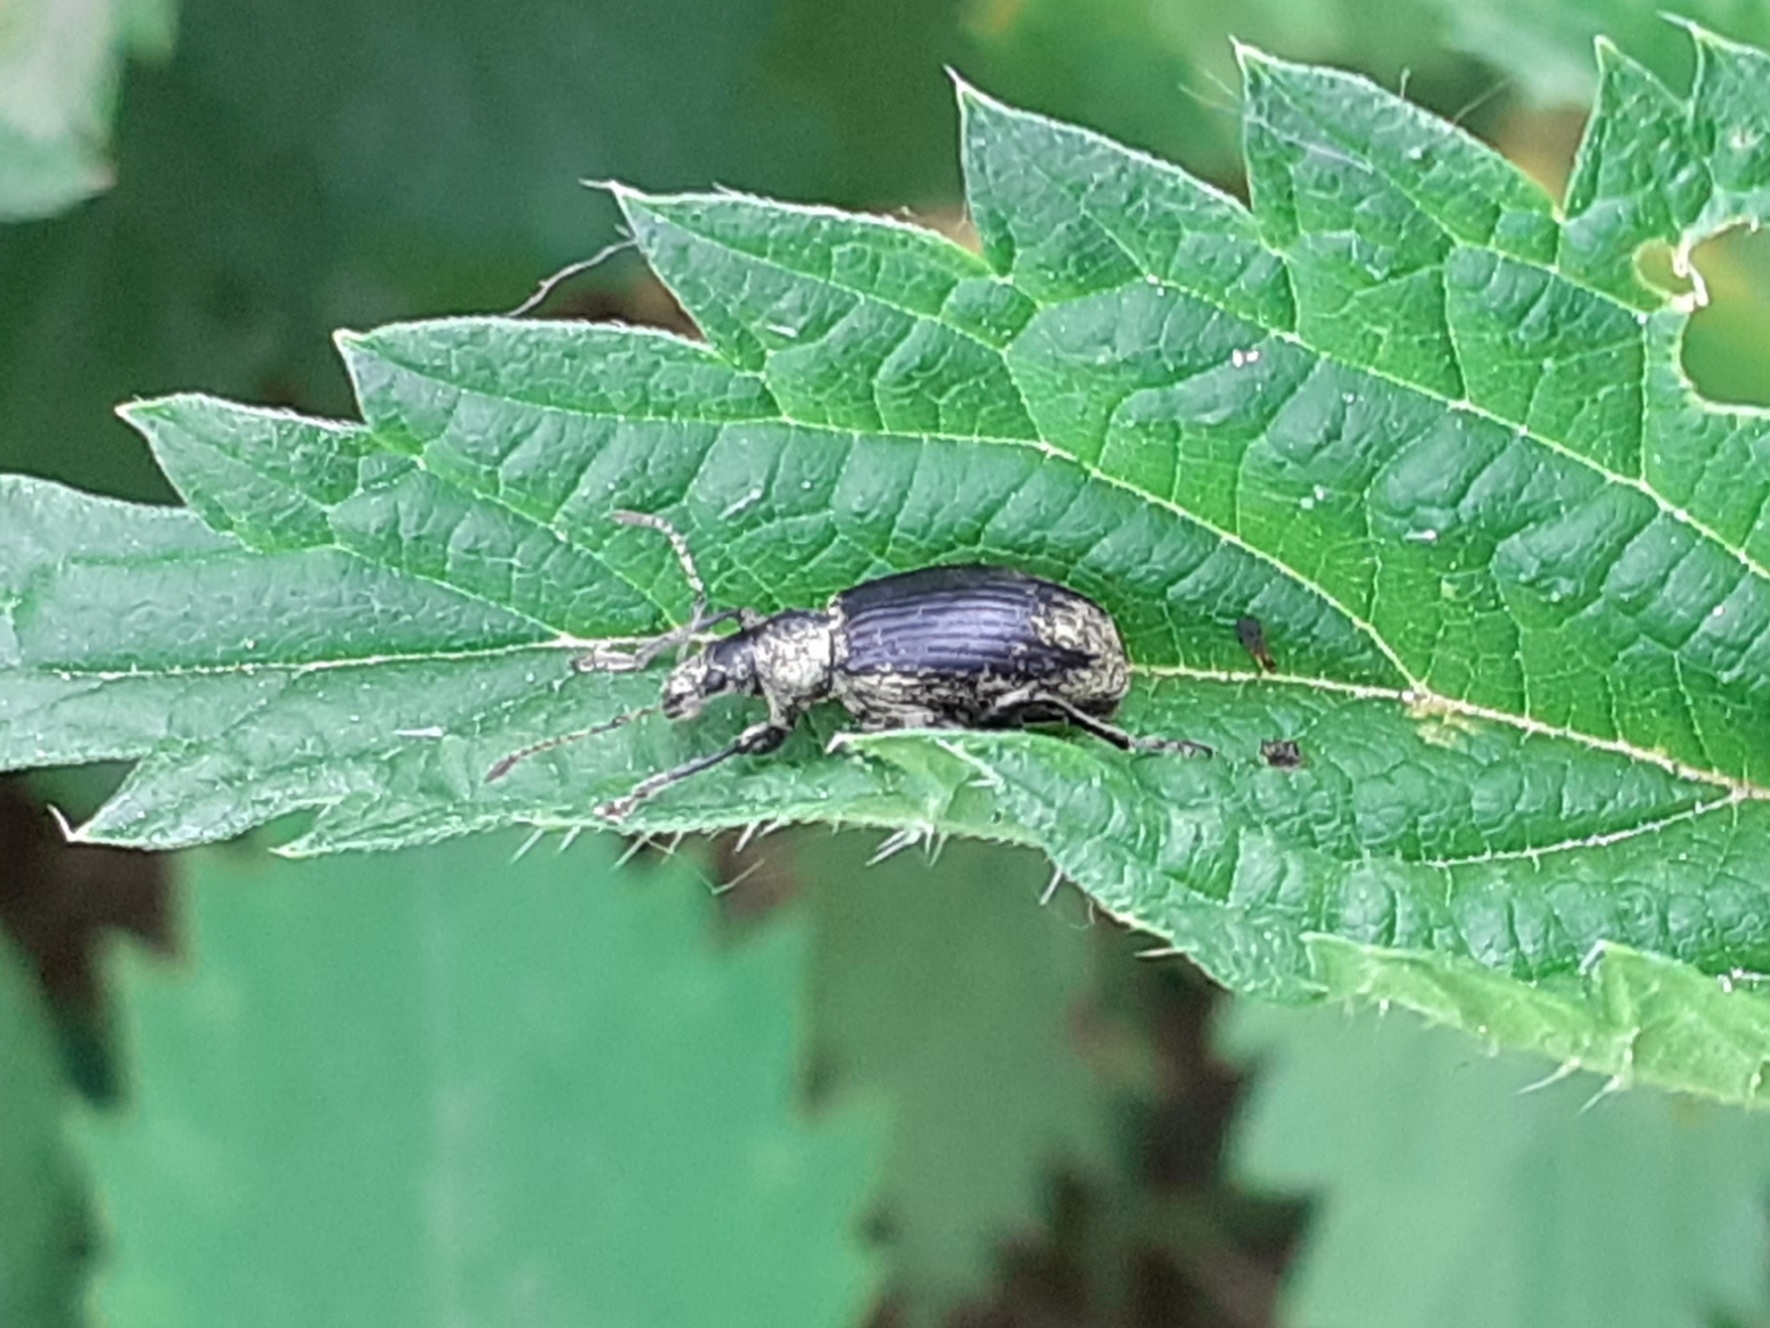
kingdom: Animalia
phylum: Arthropoda
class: Insecta
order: Coleoptera
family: Curculionidae
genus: Phyllobius
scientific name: Phyllobius pomaceus
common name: Green nettle weevil
